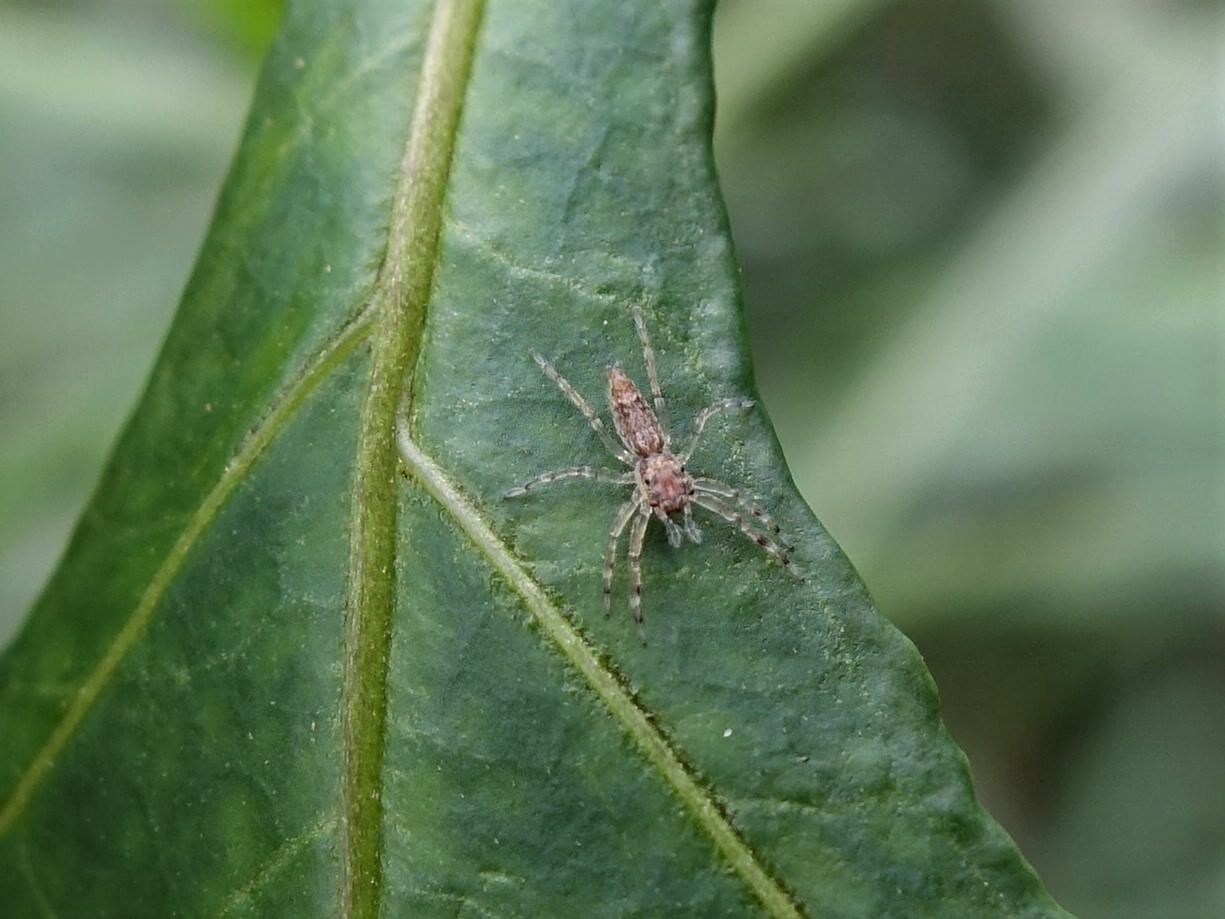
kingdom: Animalia
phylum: Arthropoda
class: Arachnida
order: Araneae
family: Salticidae
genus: Helpis
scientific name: Helpis minitabunda
